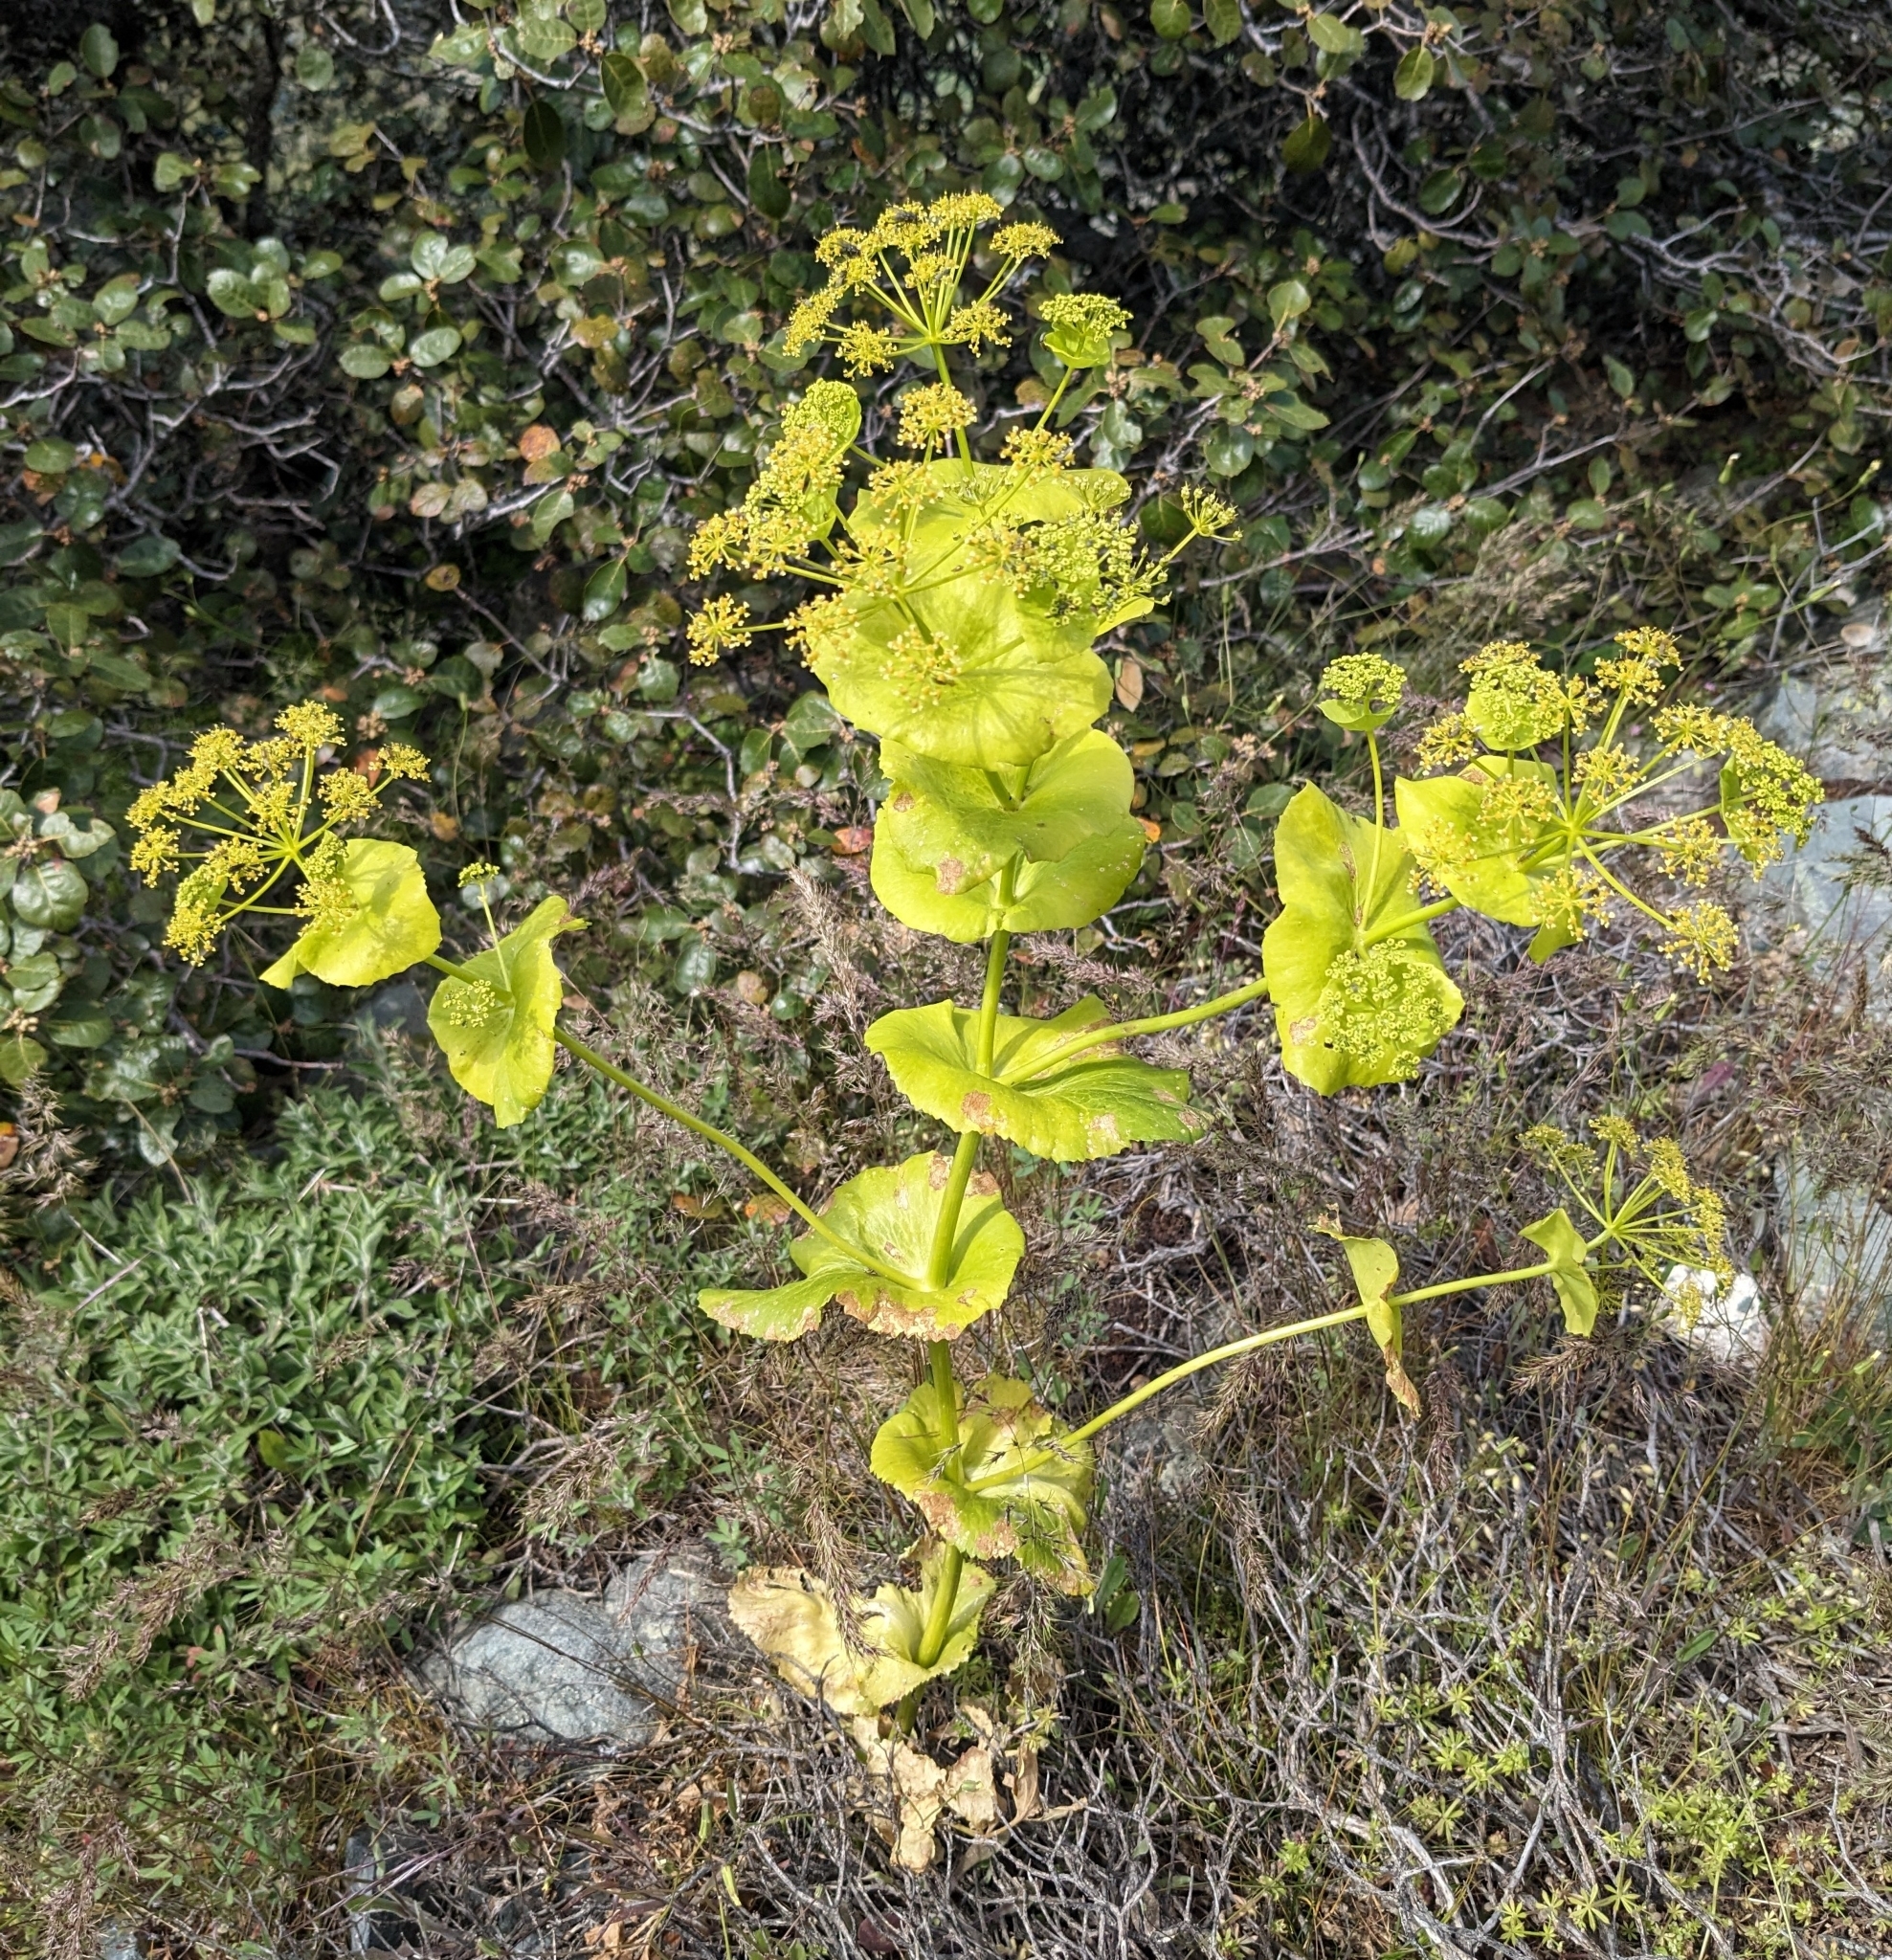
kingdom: Plantae
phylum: Tracheophyta
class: Magnoliopsida
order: Apiales
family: Apiaceae
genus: Smyrnium
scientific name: Smyrnium perfoliatum
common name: Perfoliate alexanders
